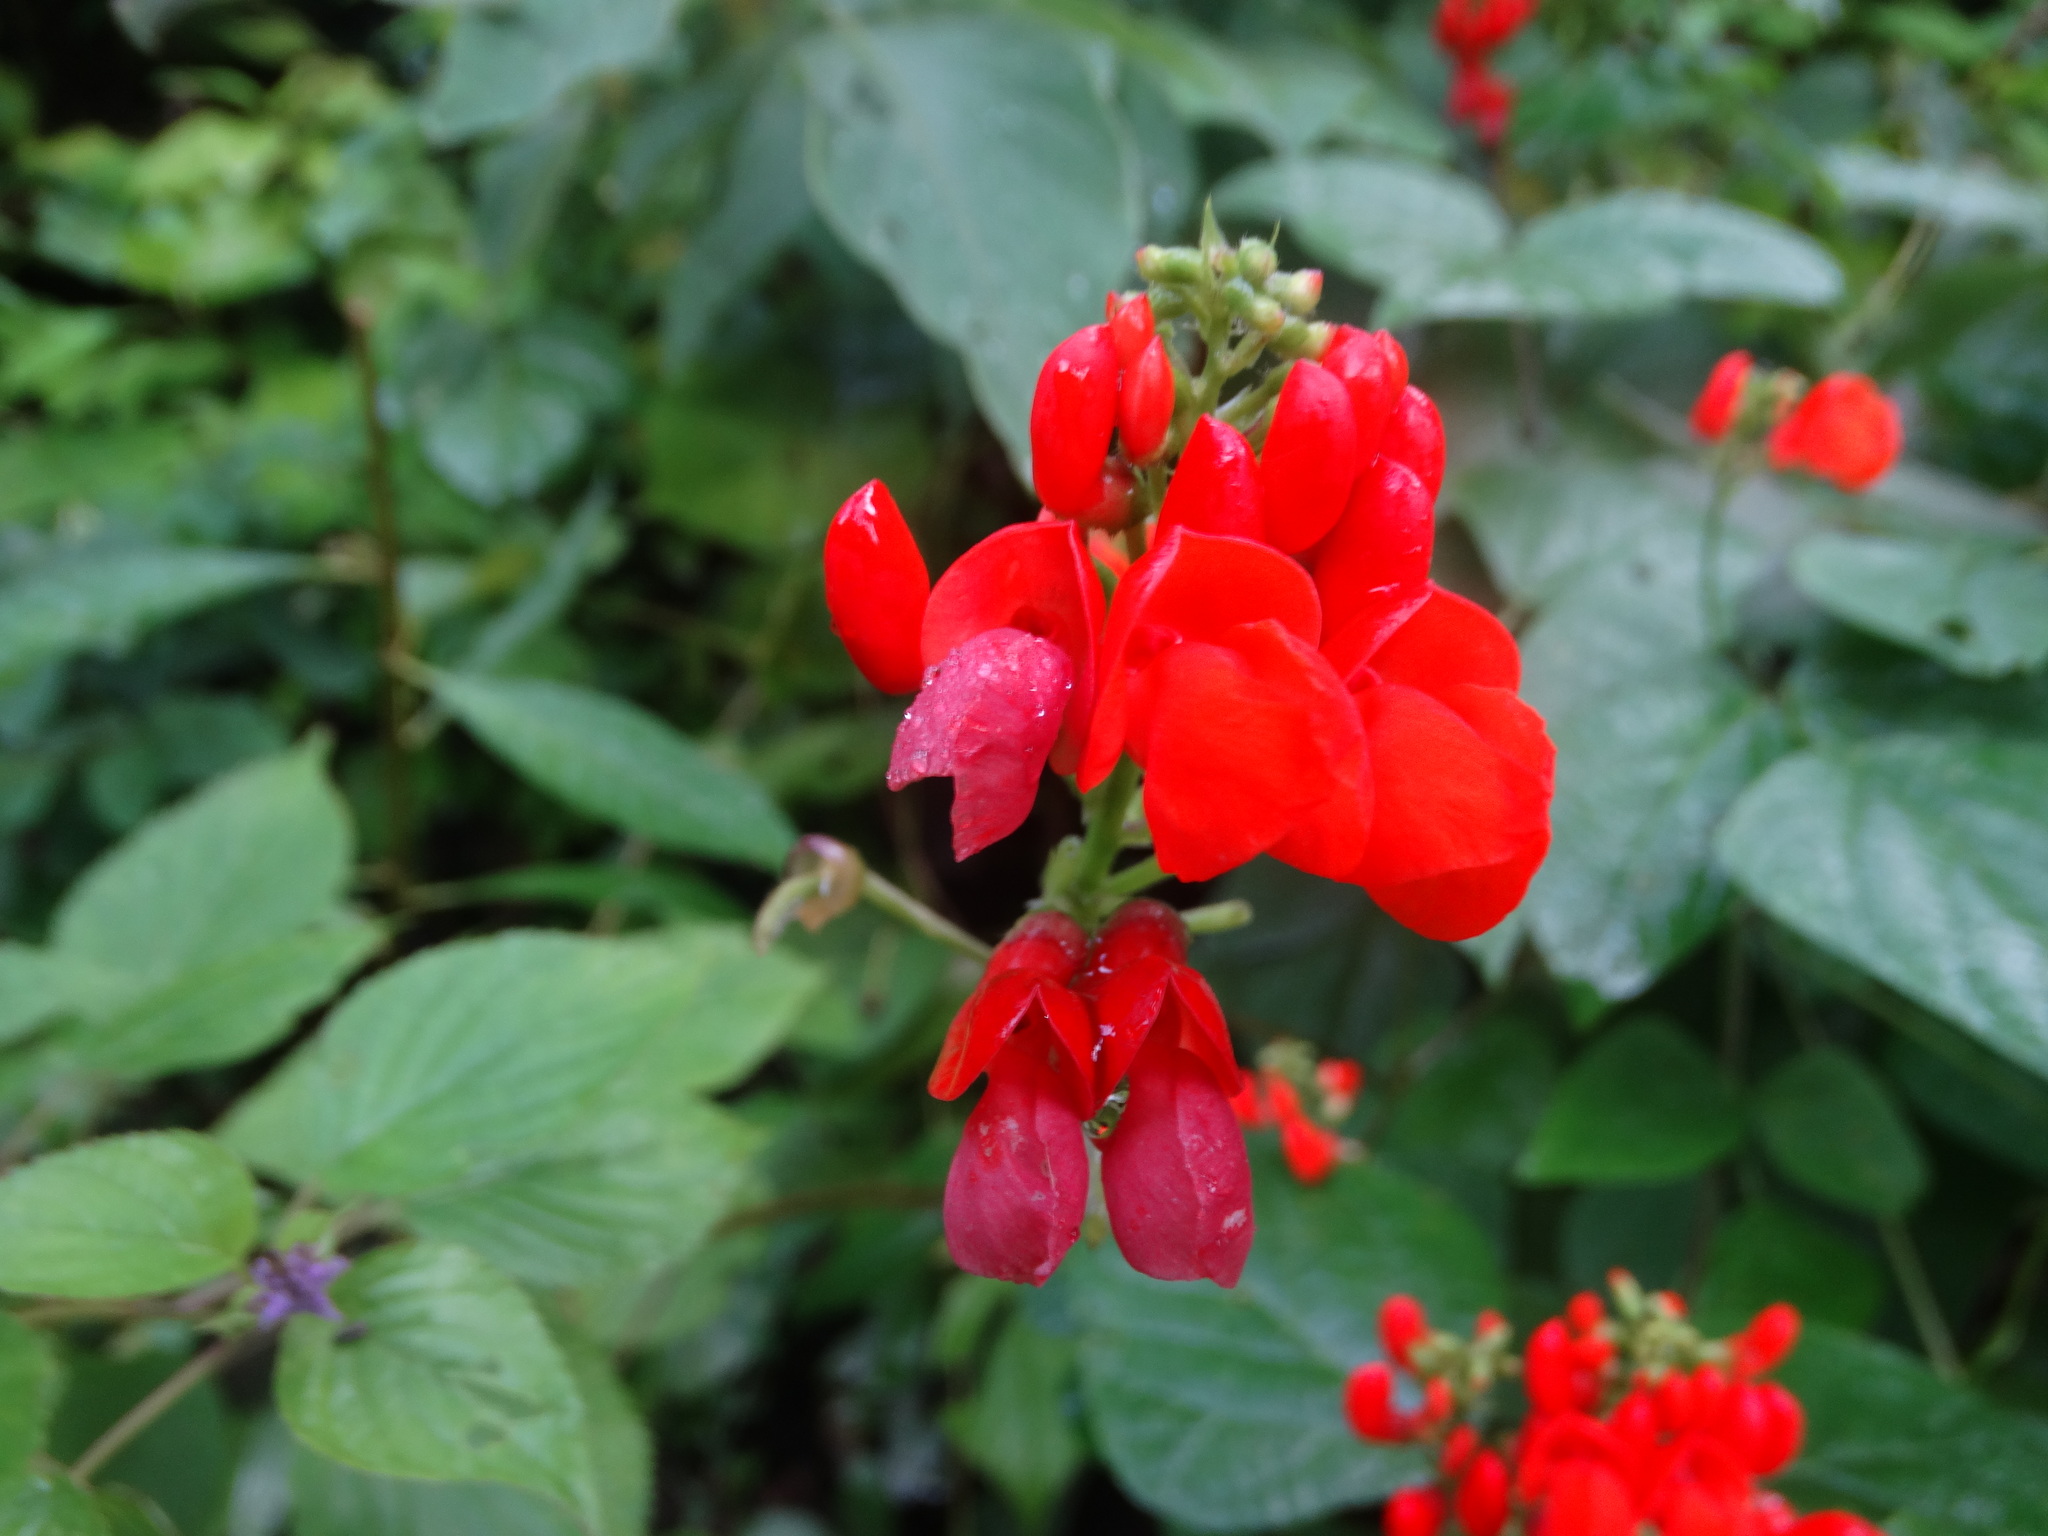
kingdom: Plantae
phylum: Tracheophyta
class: Magnoliopsida
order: Fabales
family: Fabaceae
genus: Phaseolus
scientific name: Phaseolus coccineus
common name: Runner bean
